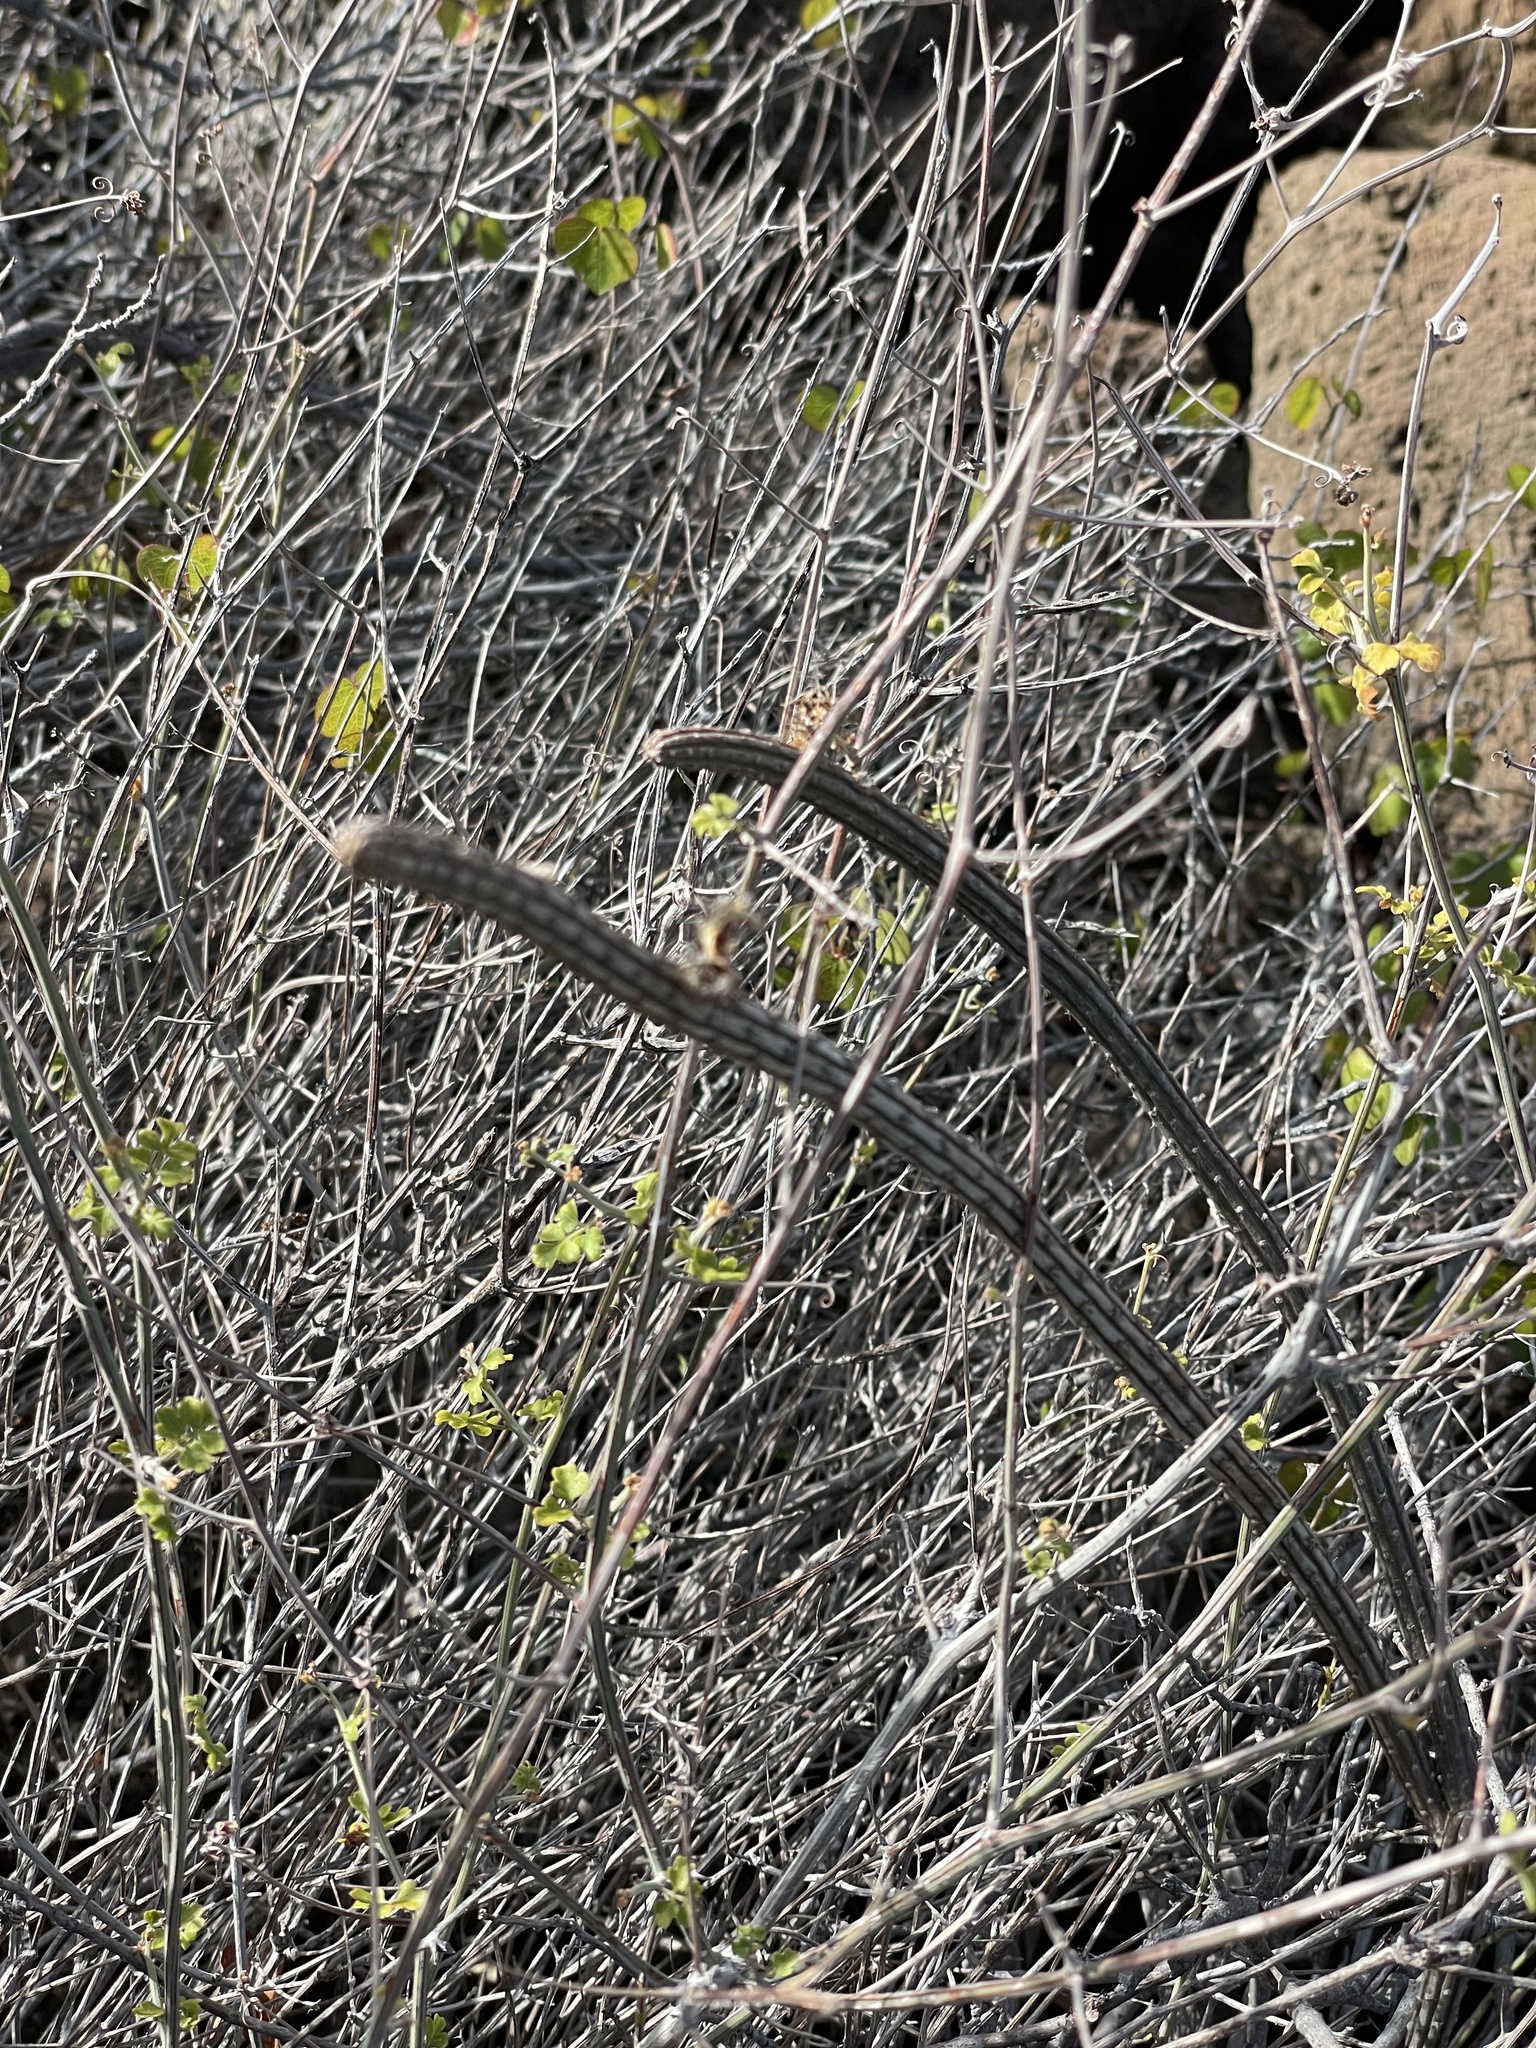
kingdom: Plantae
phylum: Tracheophyta
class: Magnoliopsida
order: Caryophyllales
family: Cactaceae
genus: Peniocereus
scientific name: Peniocereus striatus
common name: Gearstem cactus
